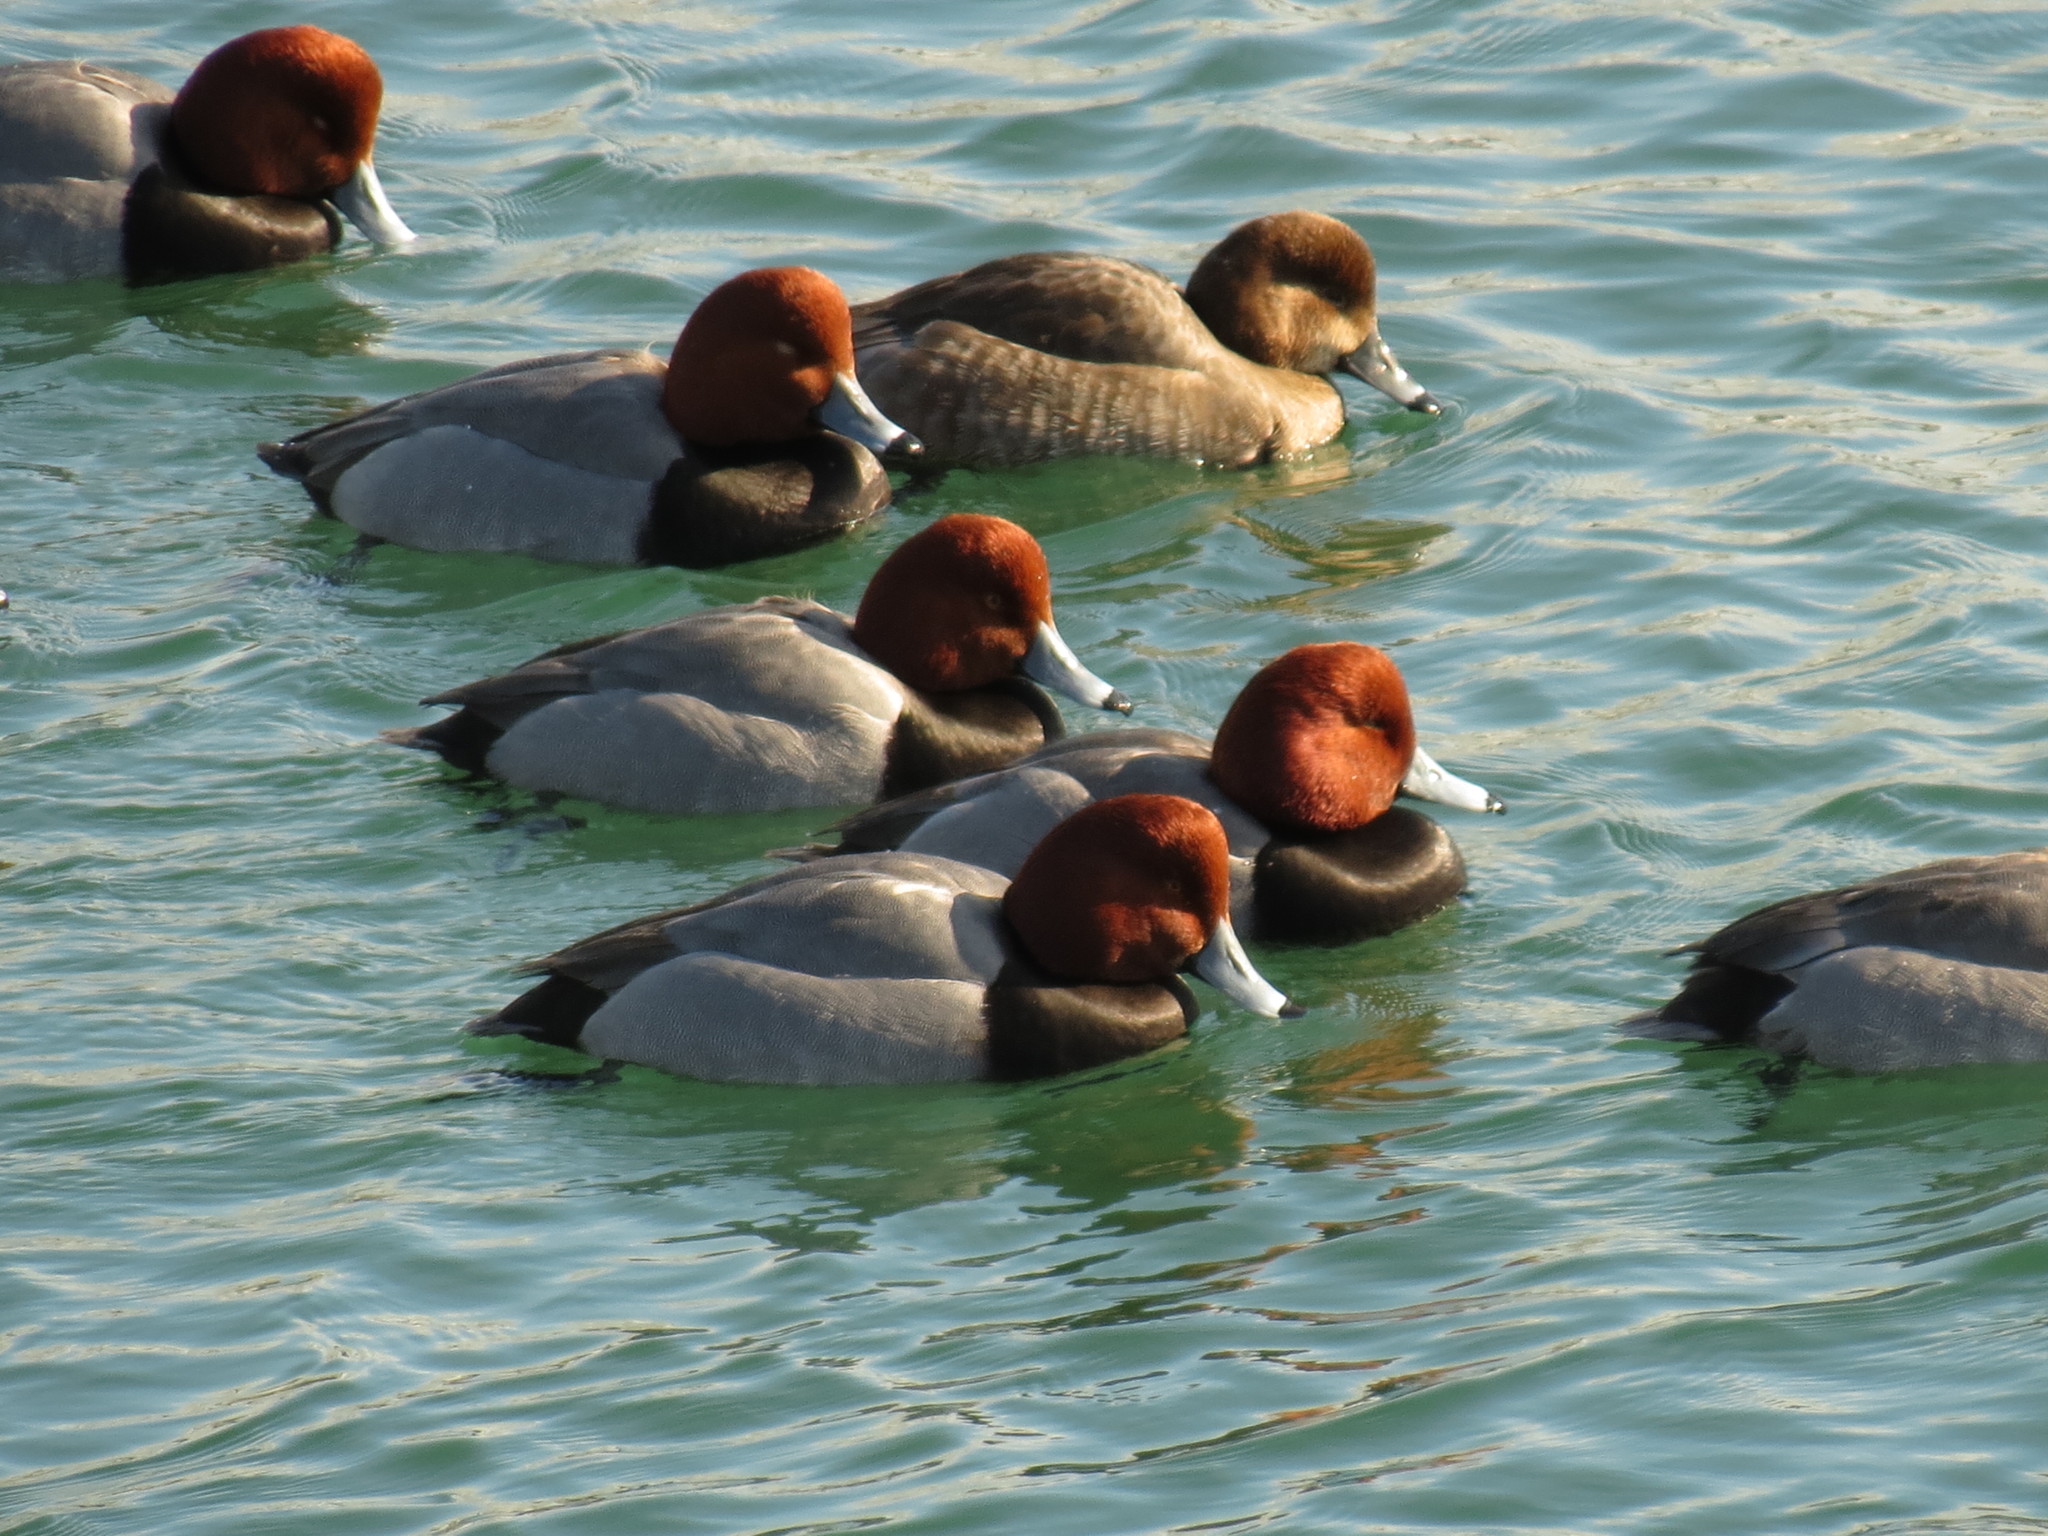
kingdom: Animalia
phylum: Chordata
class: Aves
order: Anseriformes
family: Anatidae
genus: Aythya
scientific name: Aythya americana
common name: Redhead
